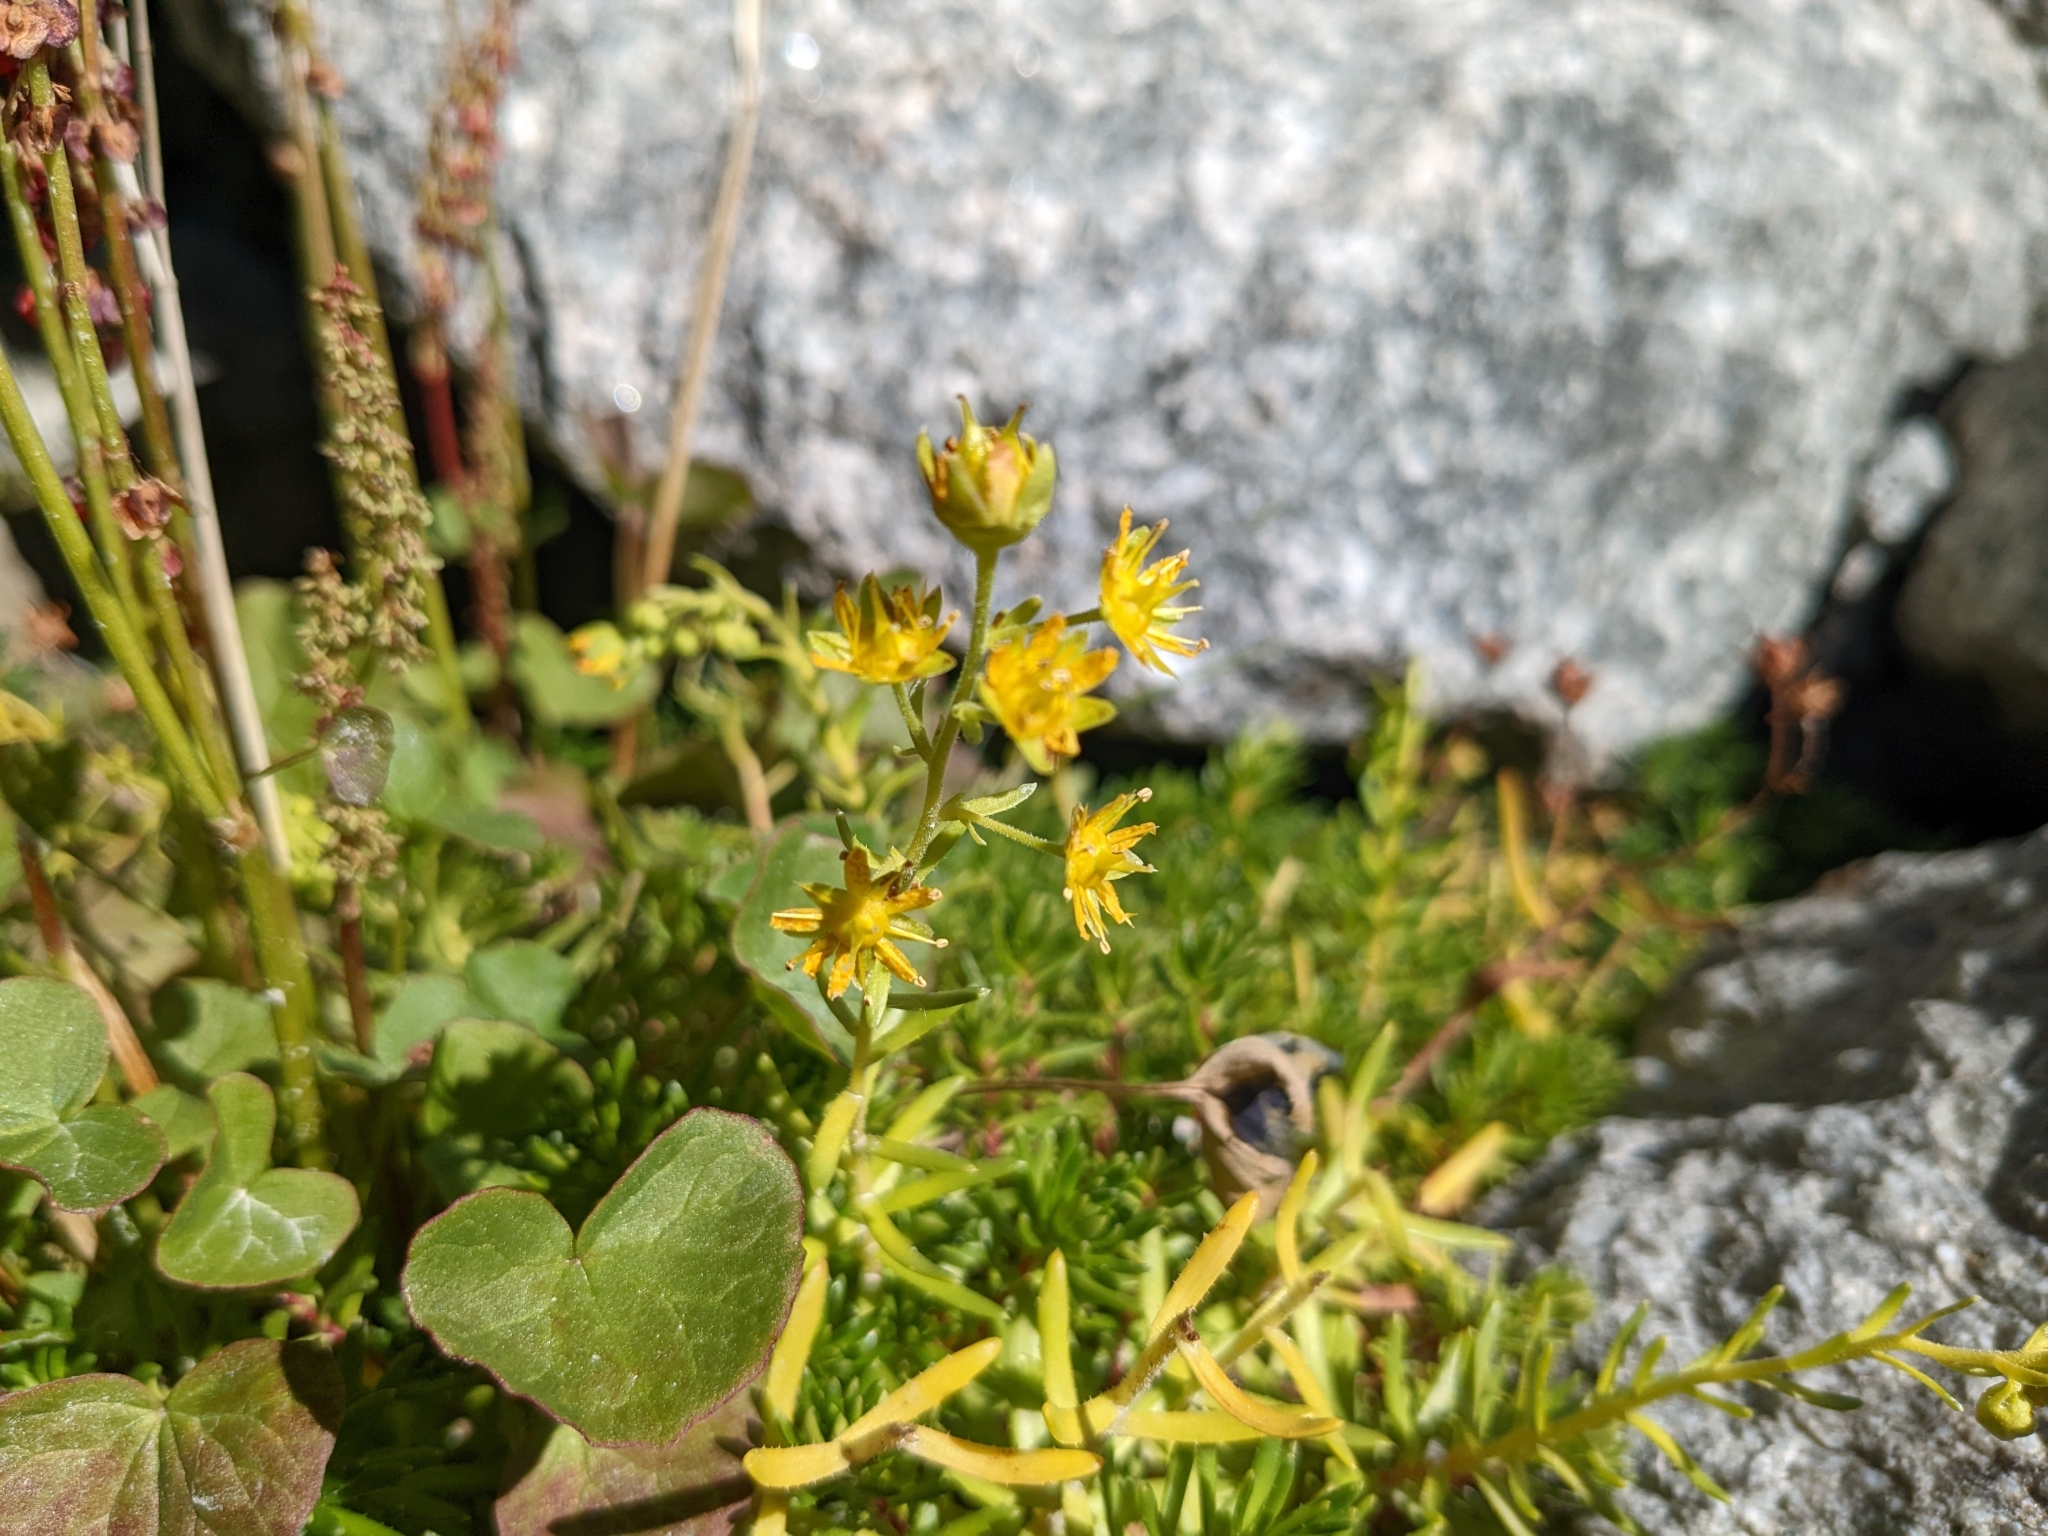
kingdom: Plantae
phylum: Tracheophyta
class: Magnoliopsida
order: Saxifragales
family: Saxifragaceae
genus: Saxifraga
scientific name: Saxifraga aizoides
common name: Yellow mountain saxifrage
